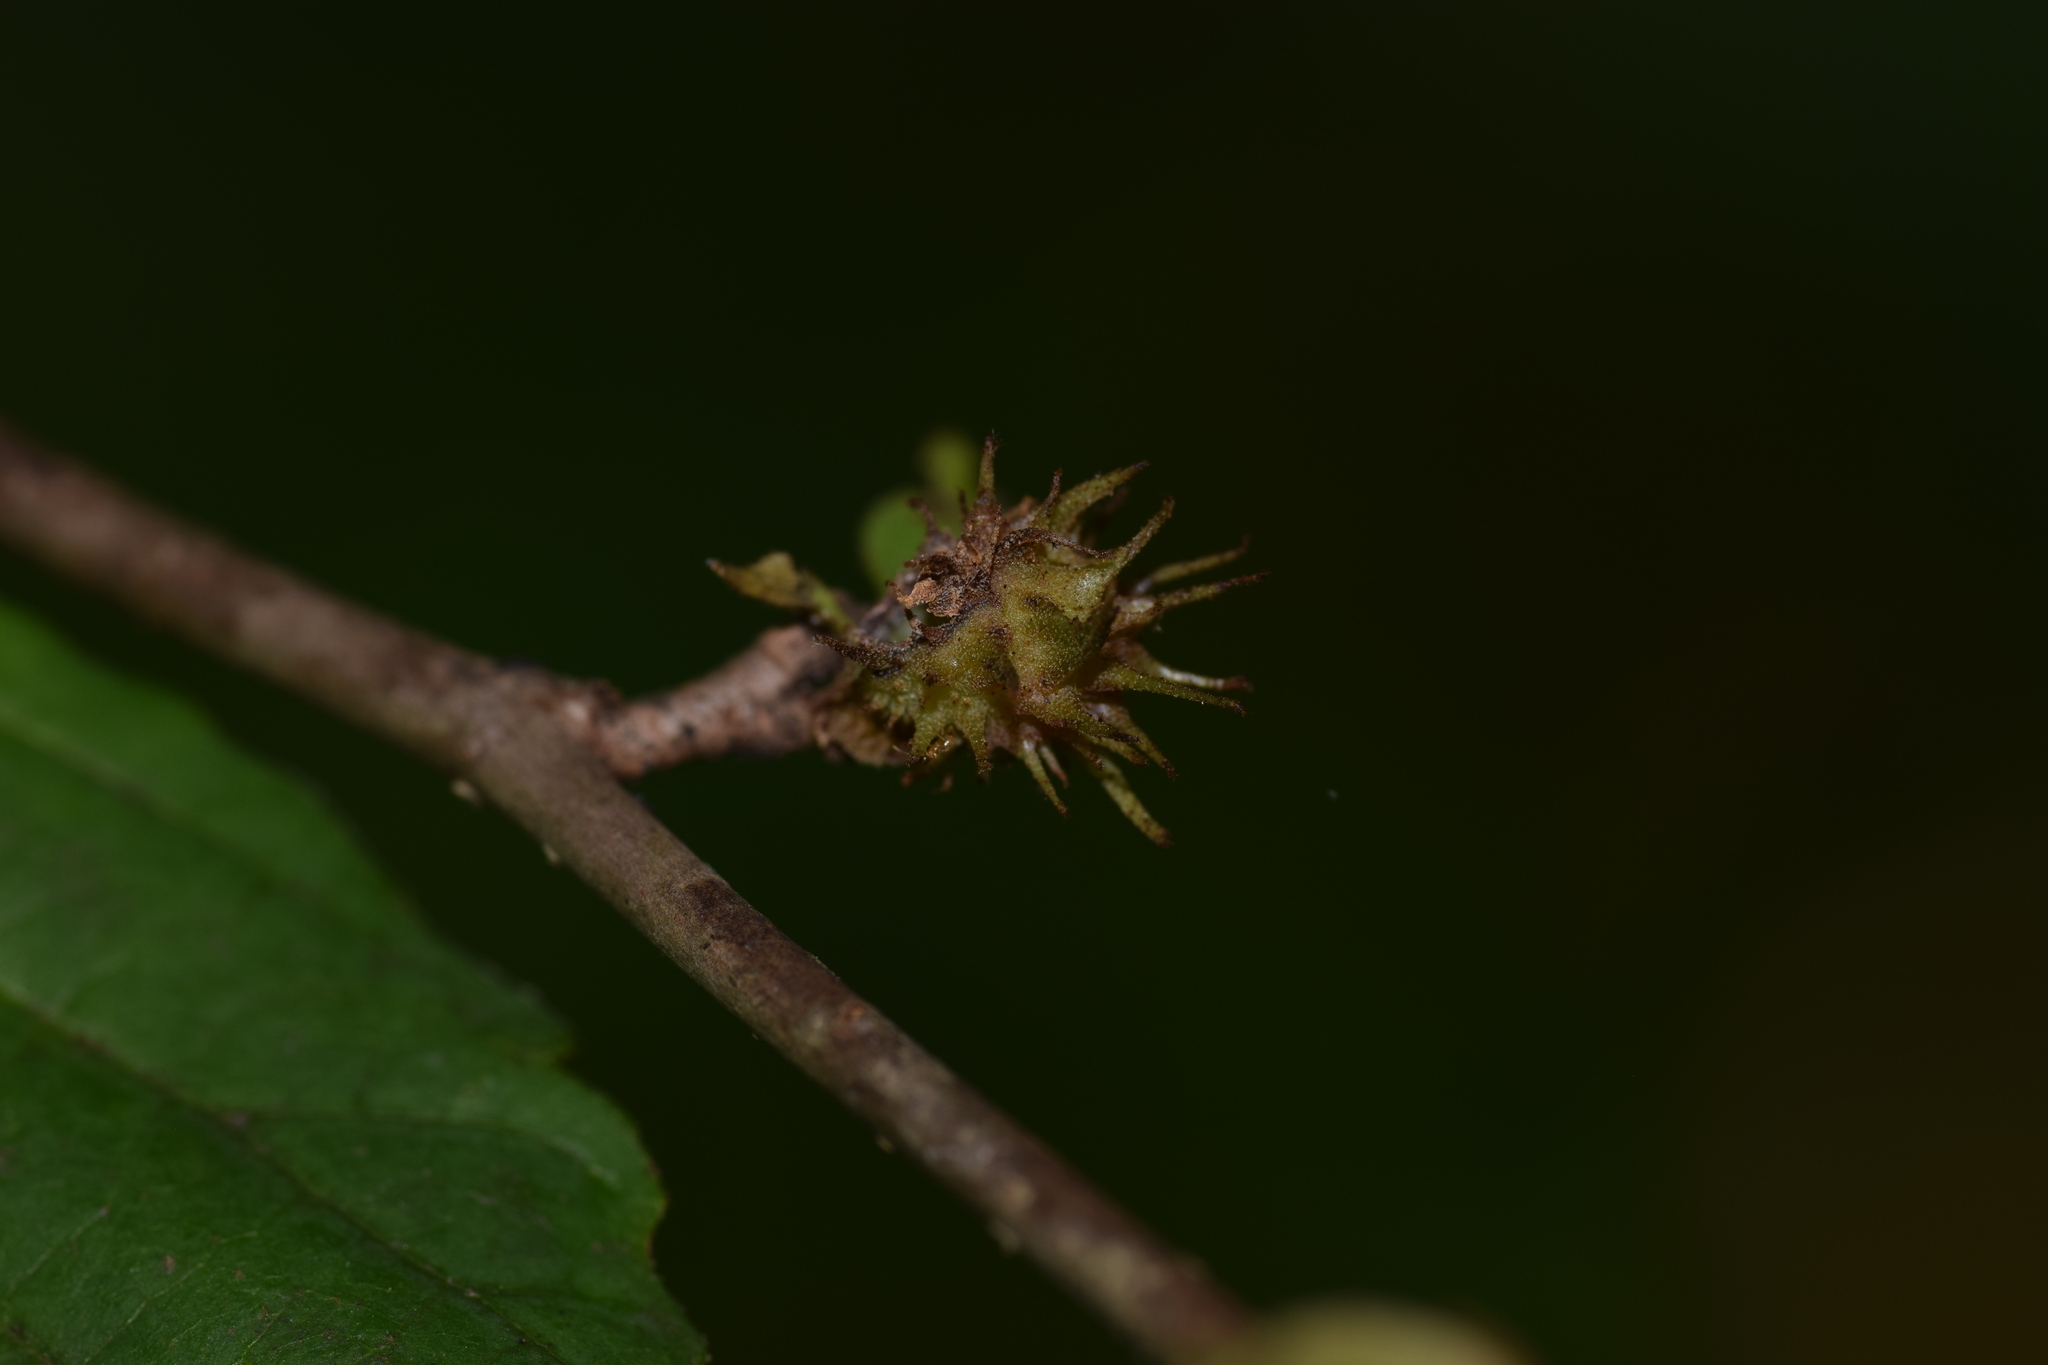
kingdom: Animalia
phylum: Arthropoda
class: Insecta
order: Hemiptera
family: Aphididae
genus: Hamamelistes
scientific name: Hamamelistes spinosus
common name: Witch hazel gall aphid
